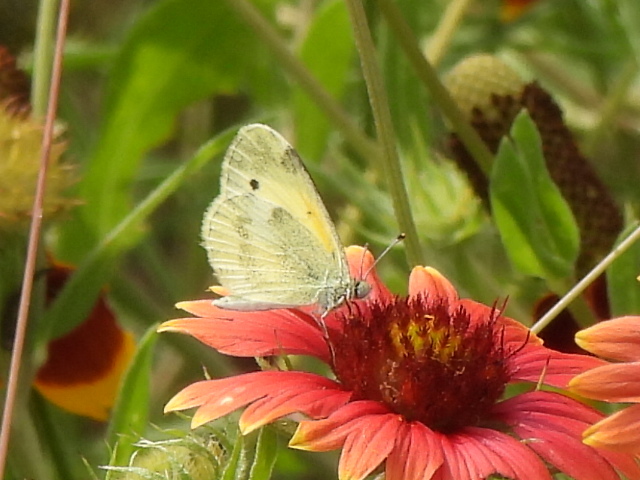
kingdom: Animalia
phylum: Arthropoda
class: Insecta
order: Lepidoptera
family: Pieridae
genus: Nathalis
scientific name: Nathalis iole
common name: Dainty sulphur
